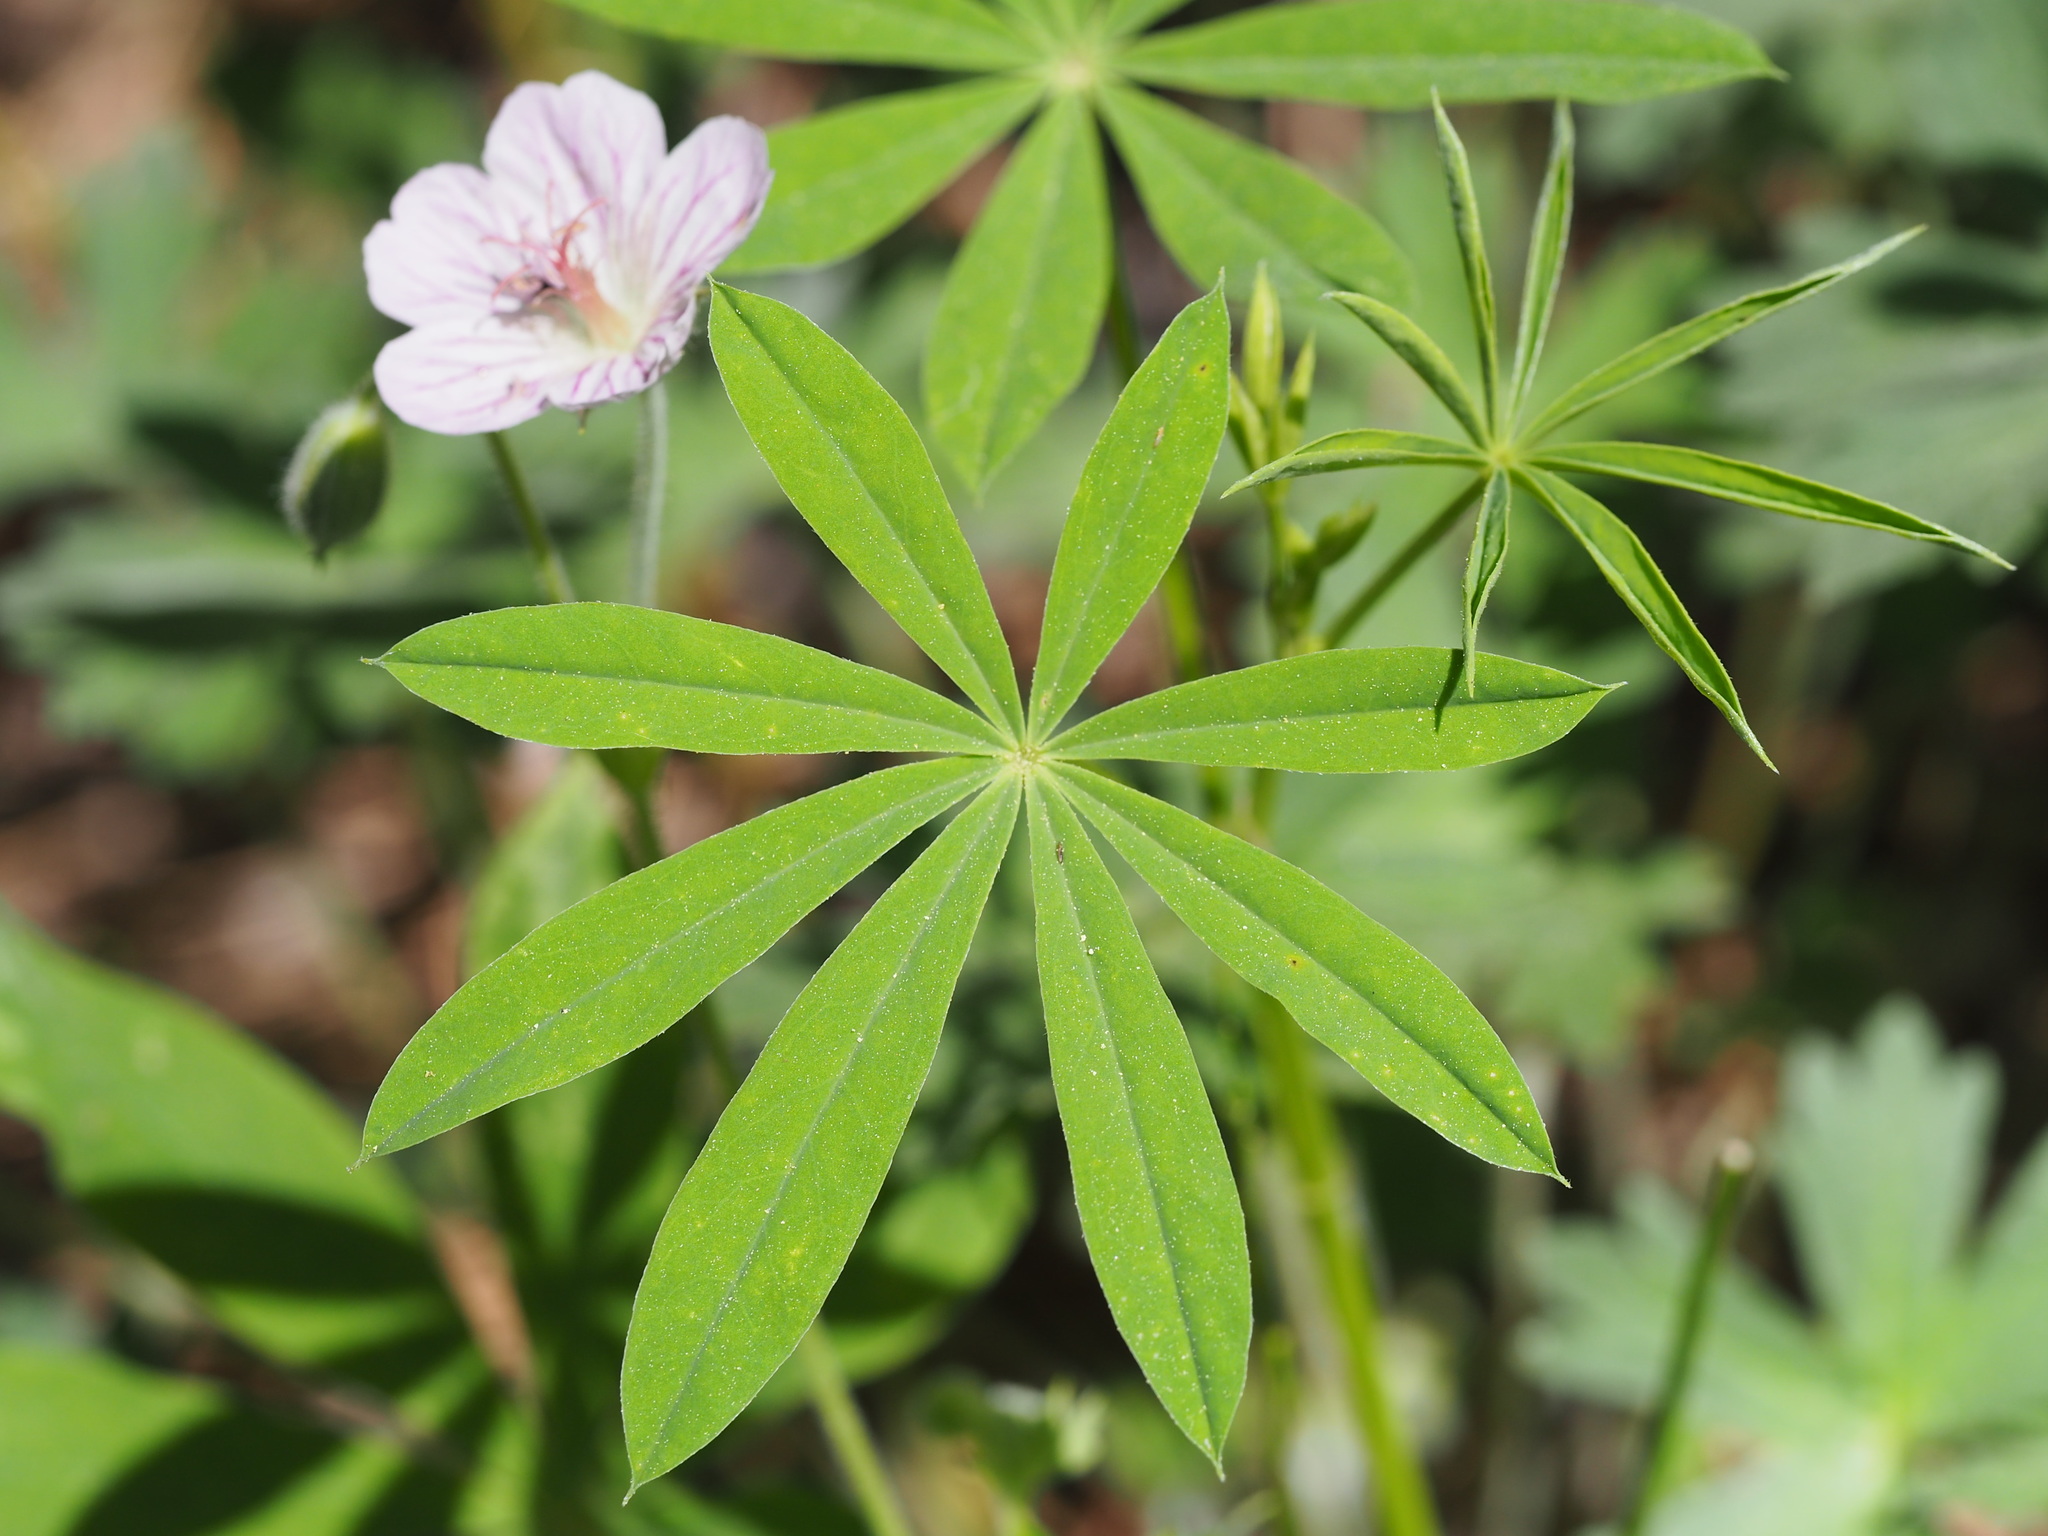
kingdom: Plantae
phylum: Tracheophyta
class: Magnoliopsida
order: Geraniales
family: Geraniaceae
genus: Geranium
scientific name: Geranium californicum
